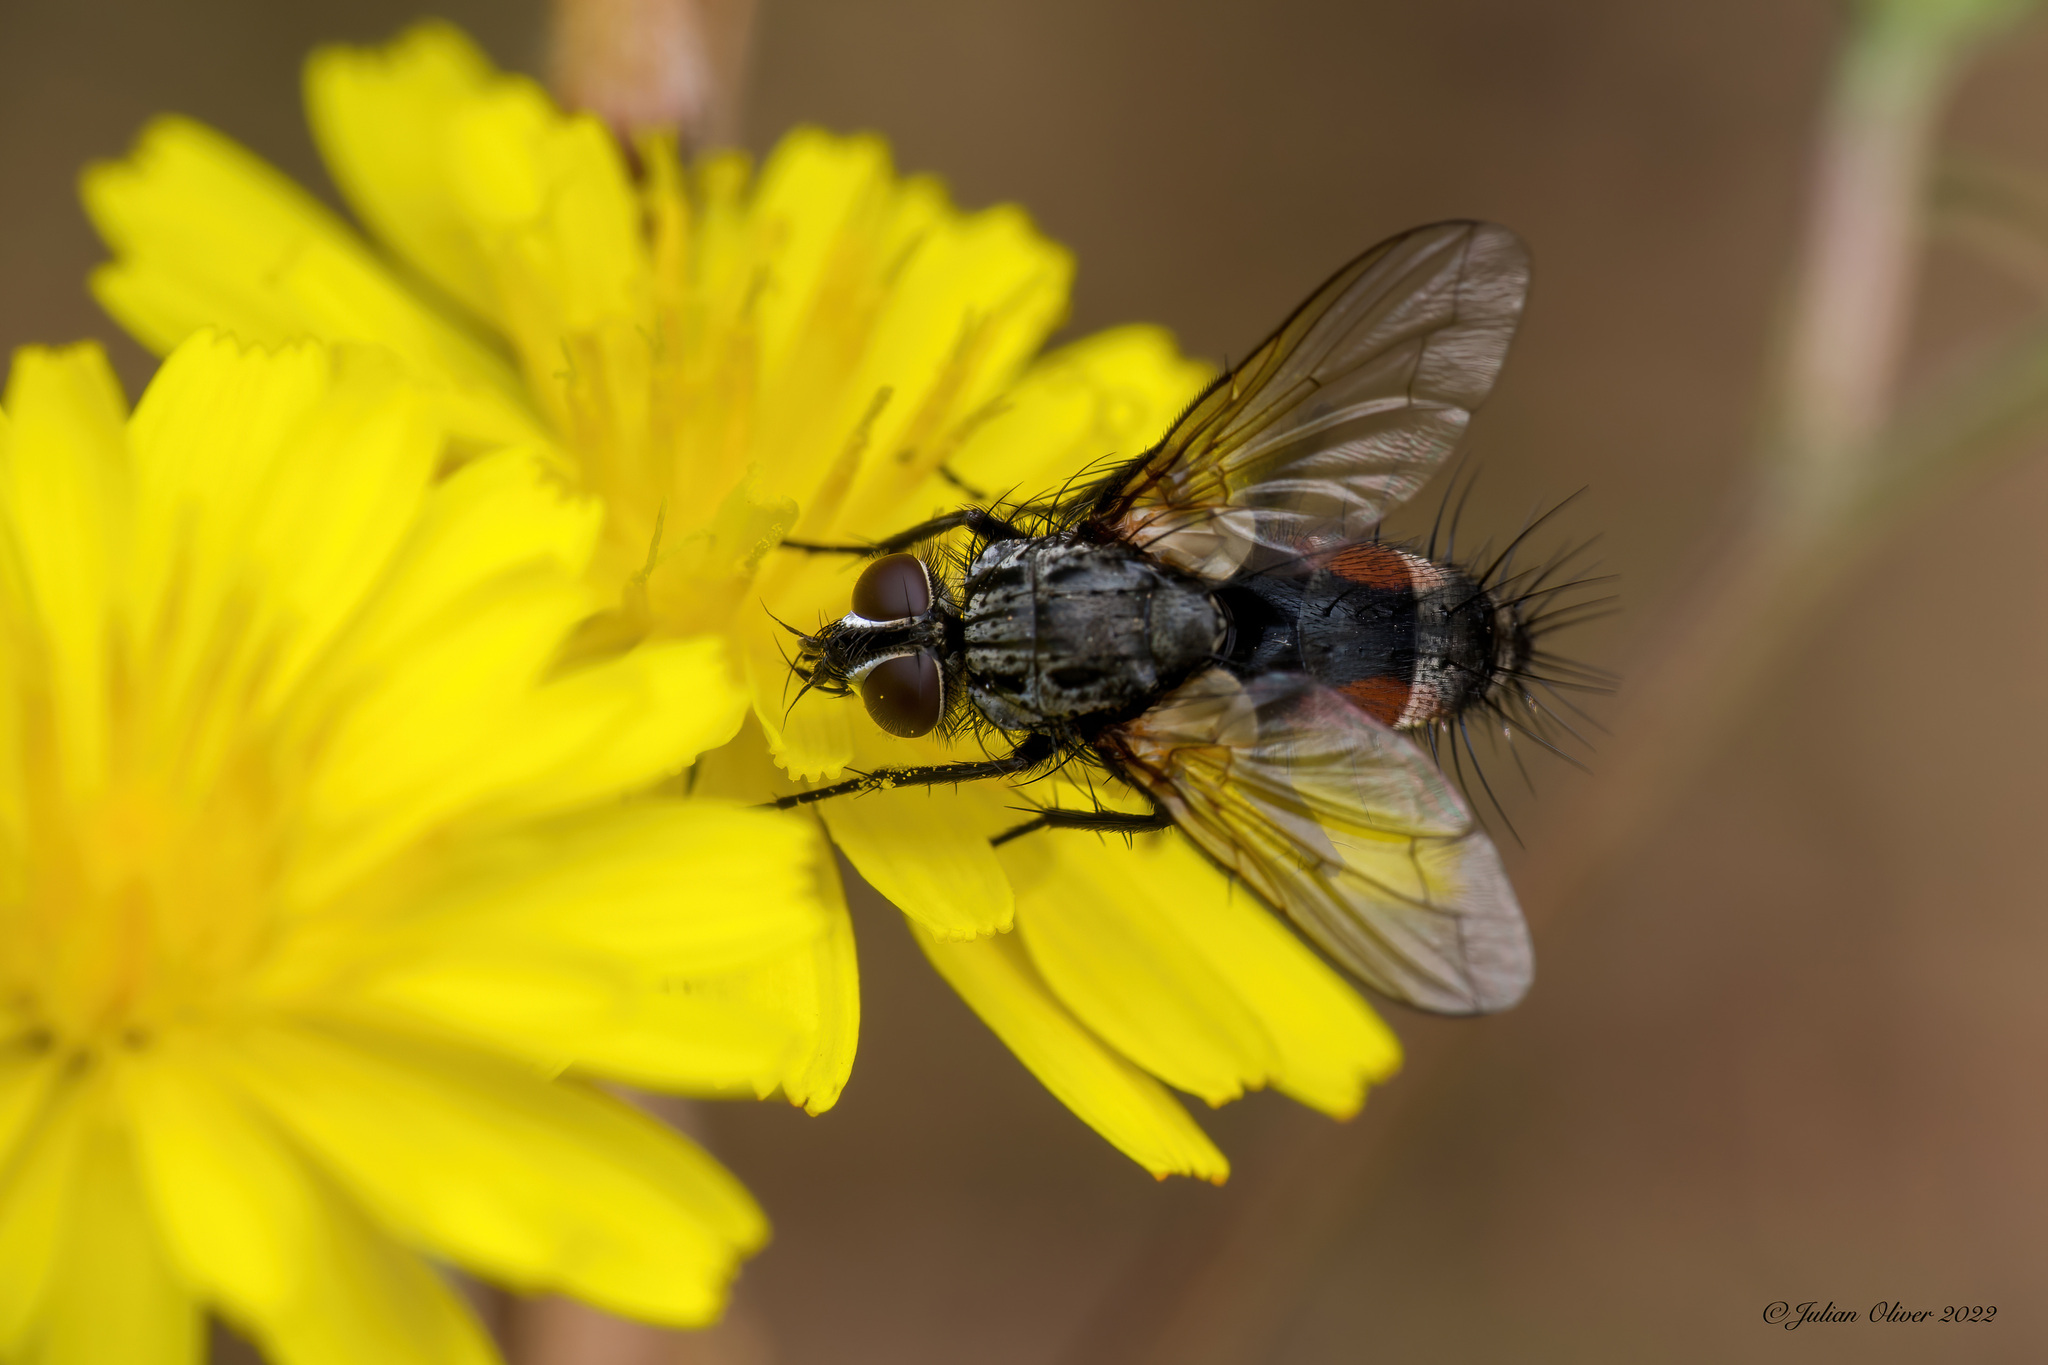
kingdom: Animalia
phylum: Arthropoda
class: Insecta
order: Diptera
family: Tachinidae
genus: Eriothrix
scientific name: Eriothrix rufomaculatus
